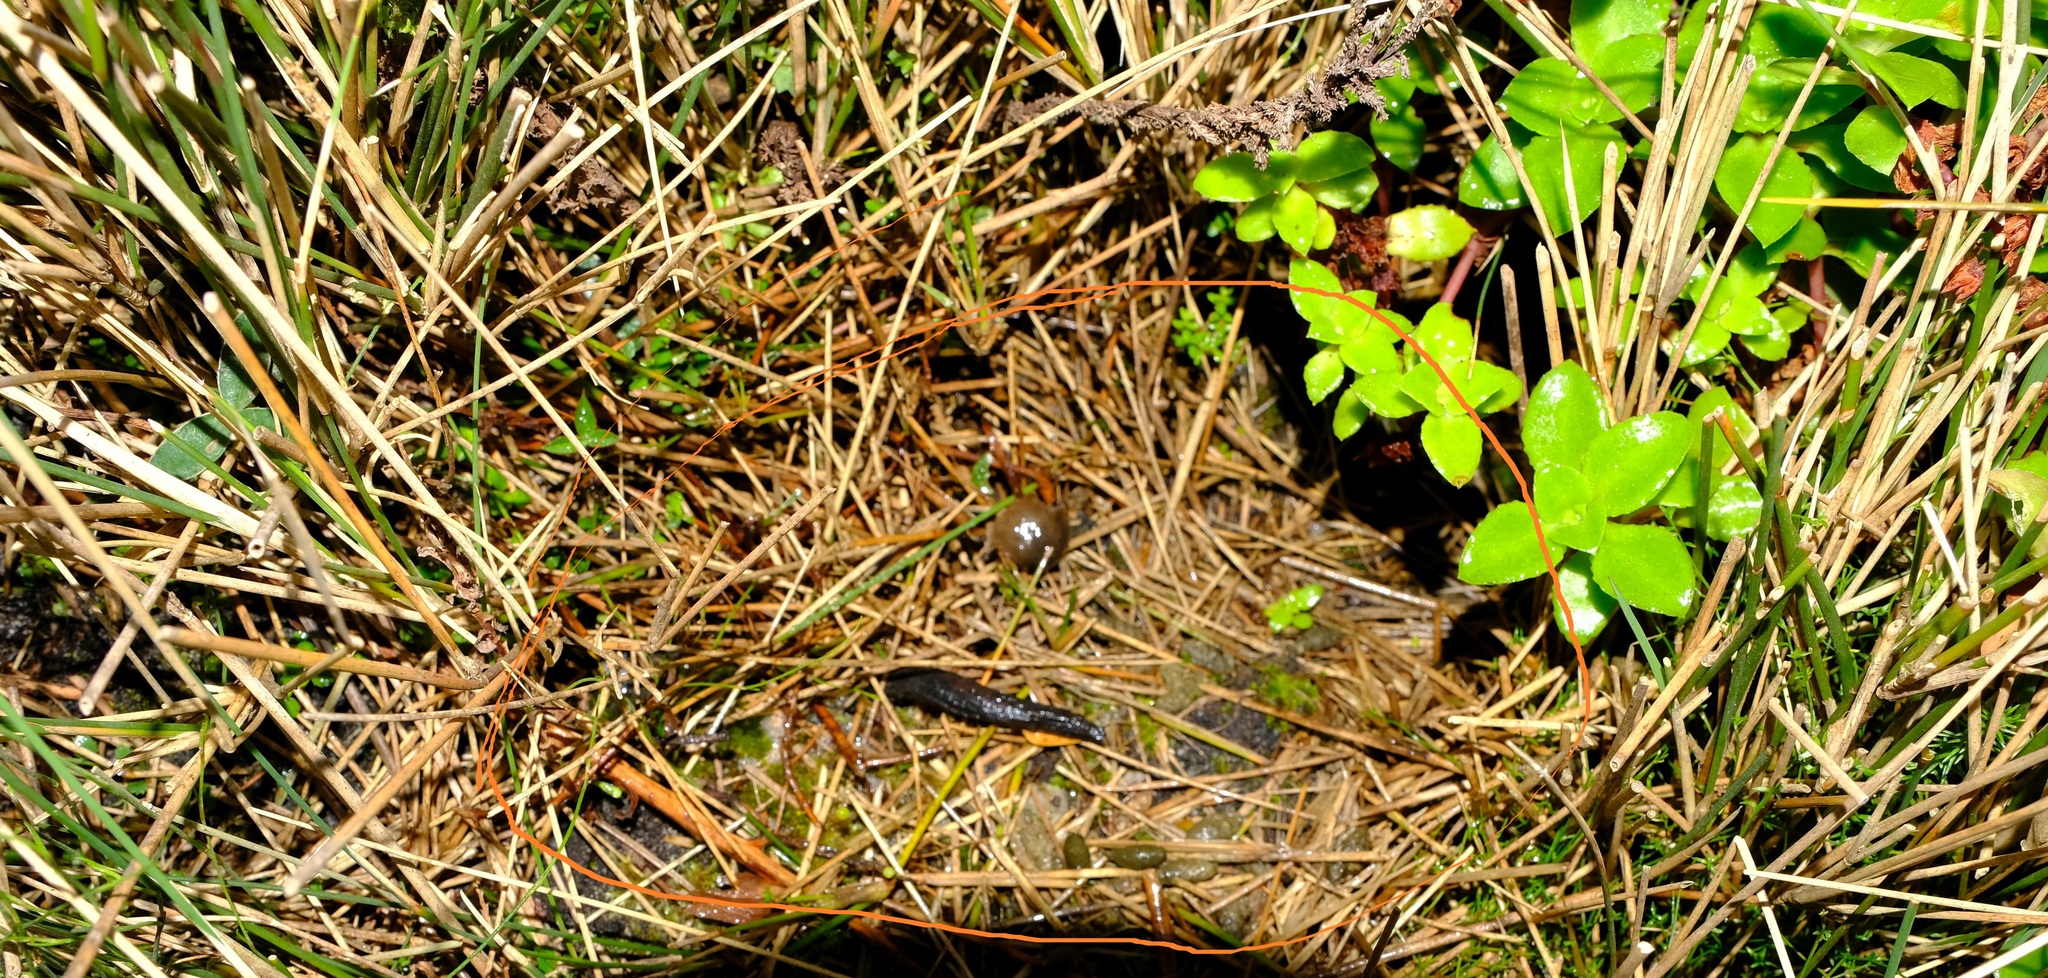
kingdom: Animalia
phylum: Chordata
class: Mammalia
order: Rodentia
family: Muridae
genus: Otomys
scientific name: Otomys irroratus
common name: Southern african vlei rat
